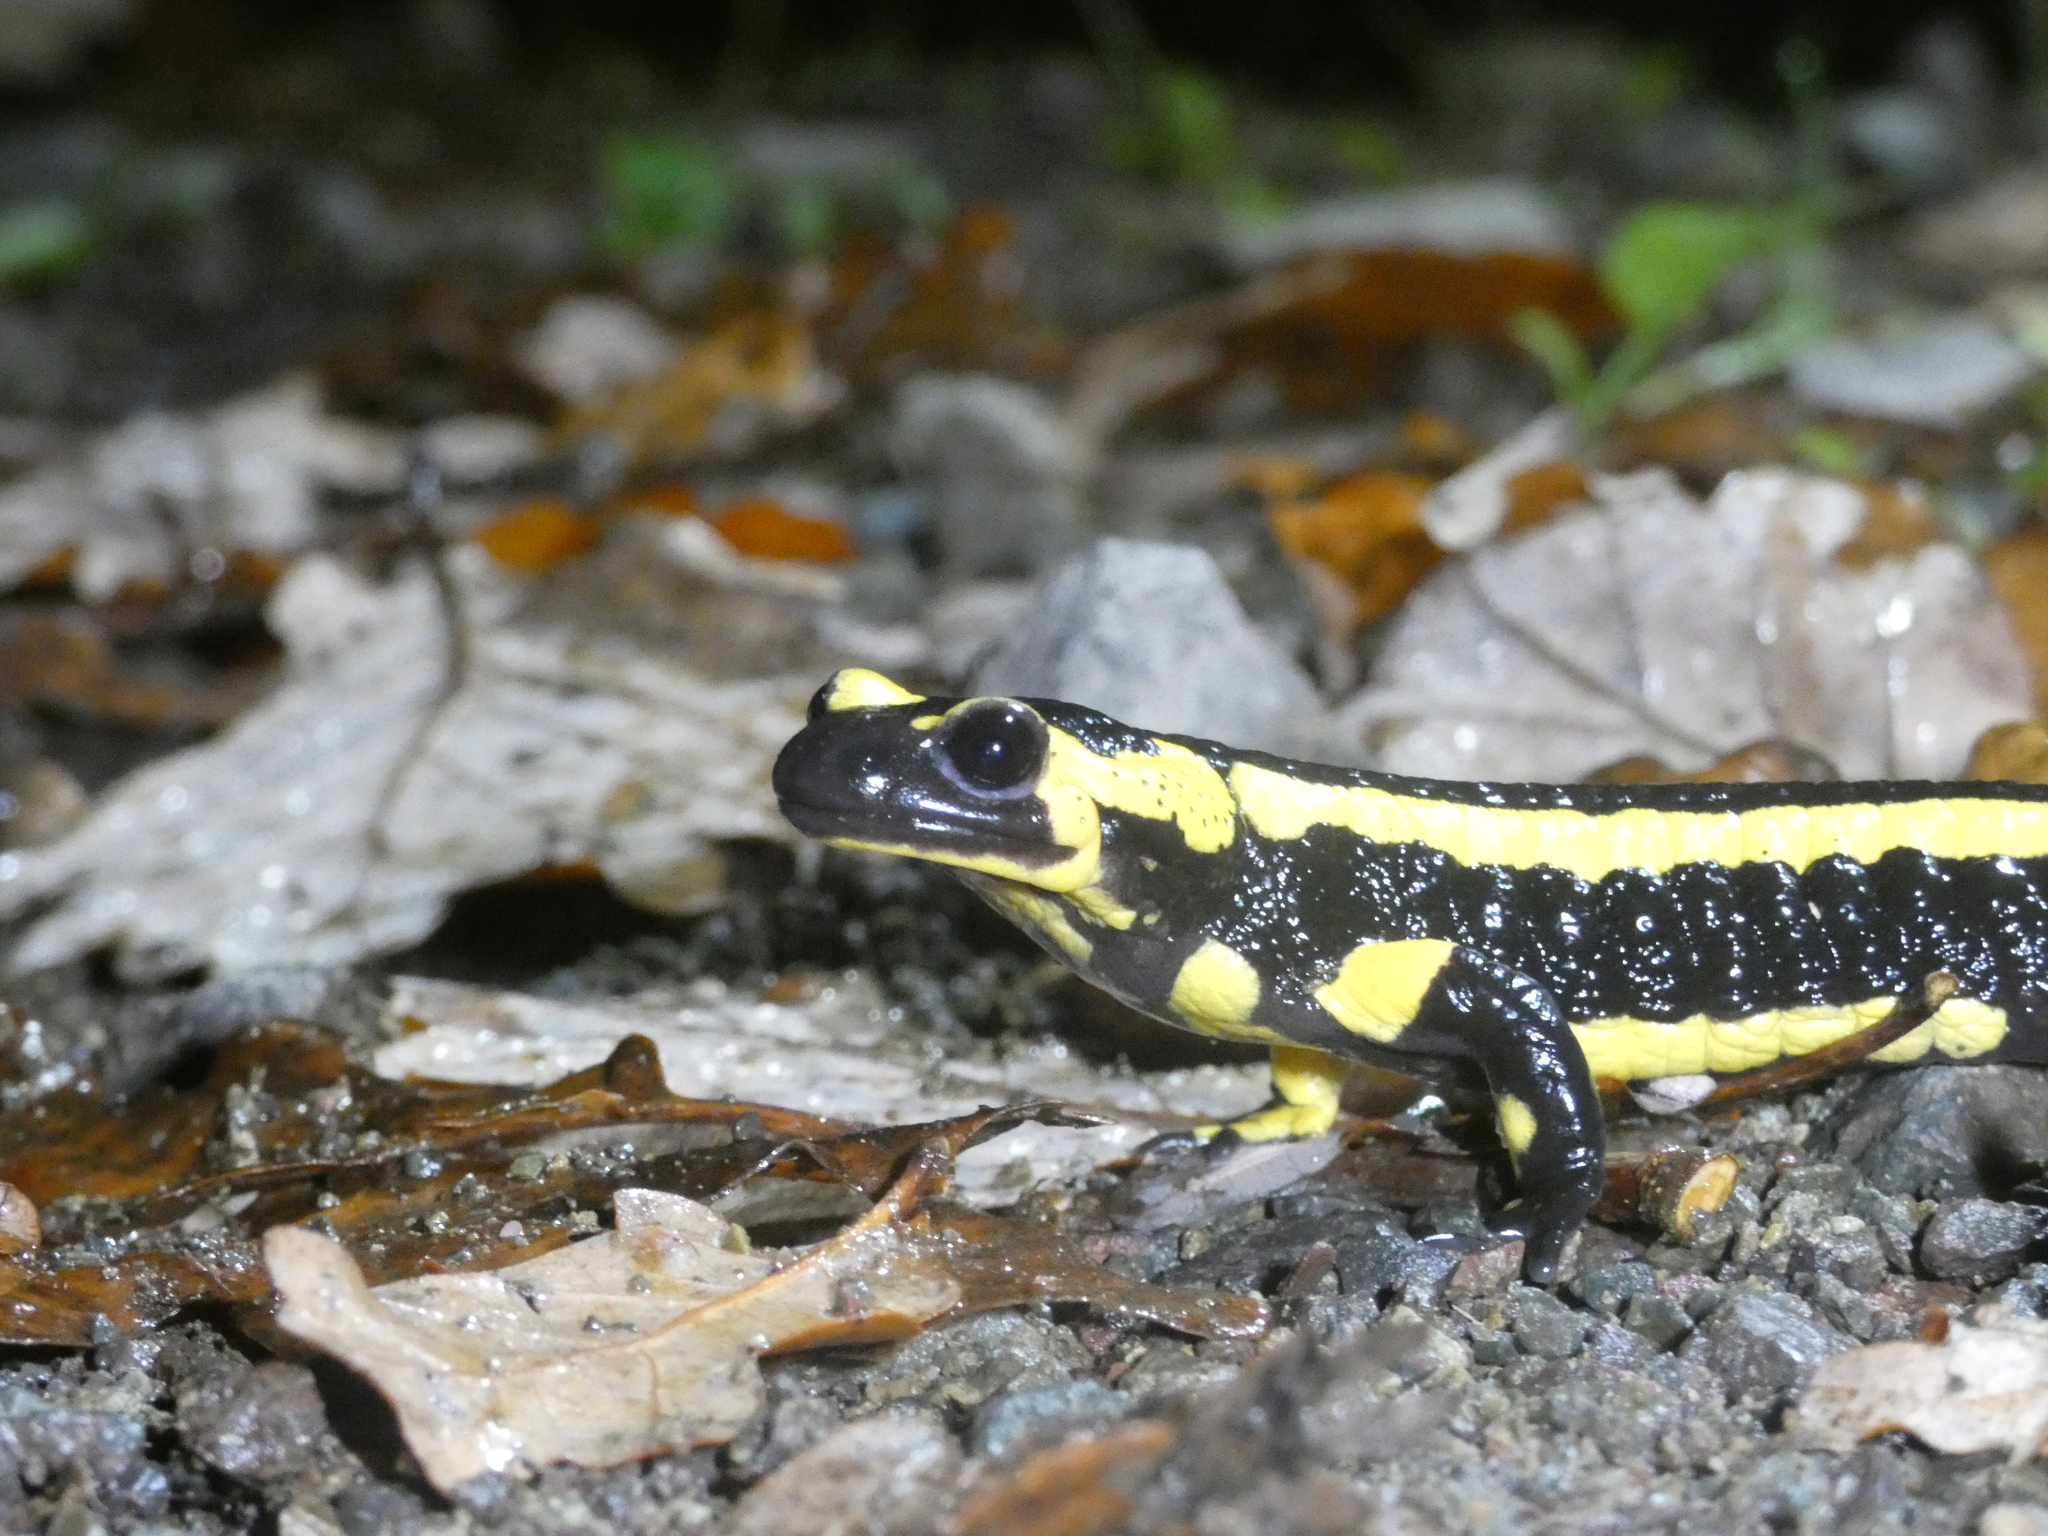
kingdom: Animalia
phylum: Chordata
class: Amphibia
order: Caudata
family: Salamandridae
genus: Salamandra
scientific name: Salamandra salamandra
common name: Fire salamander
